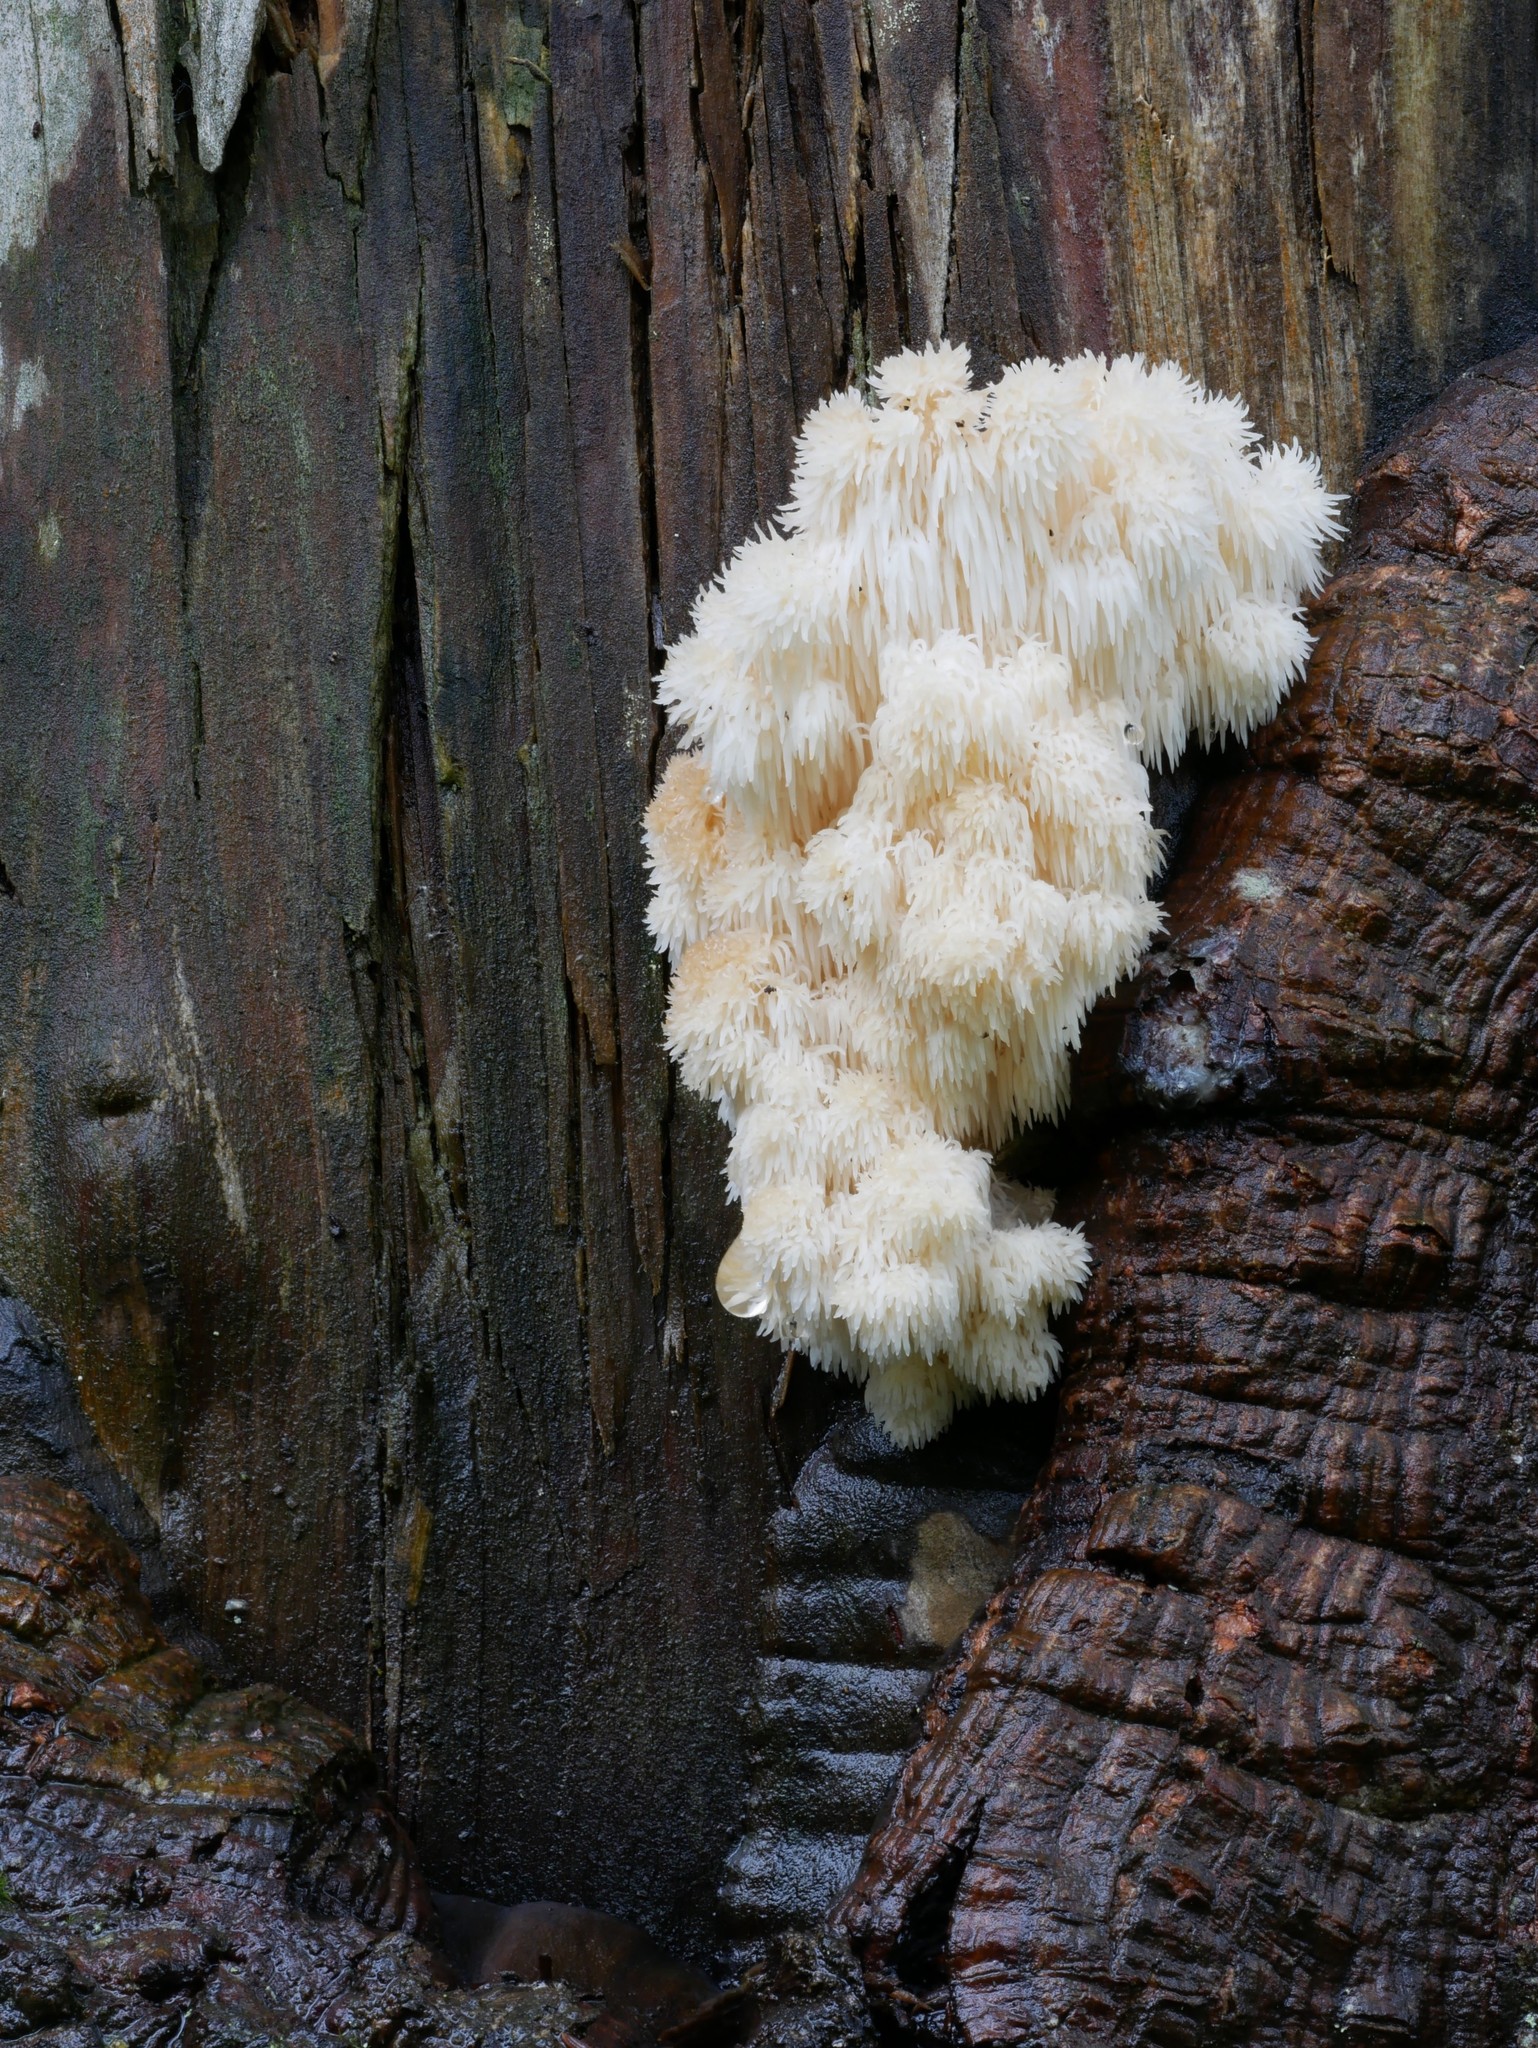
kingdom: Fungi
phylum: Basidiomycota
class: Agaricomycetes
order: Russulales
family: Hericiaceae
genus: Hericium
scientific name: Hericium americanum
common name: Bear's head tooth
